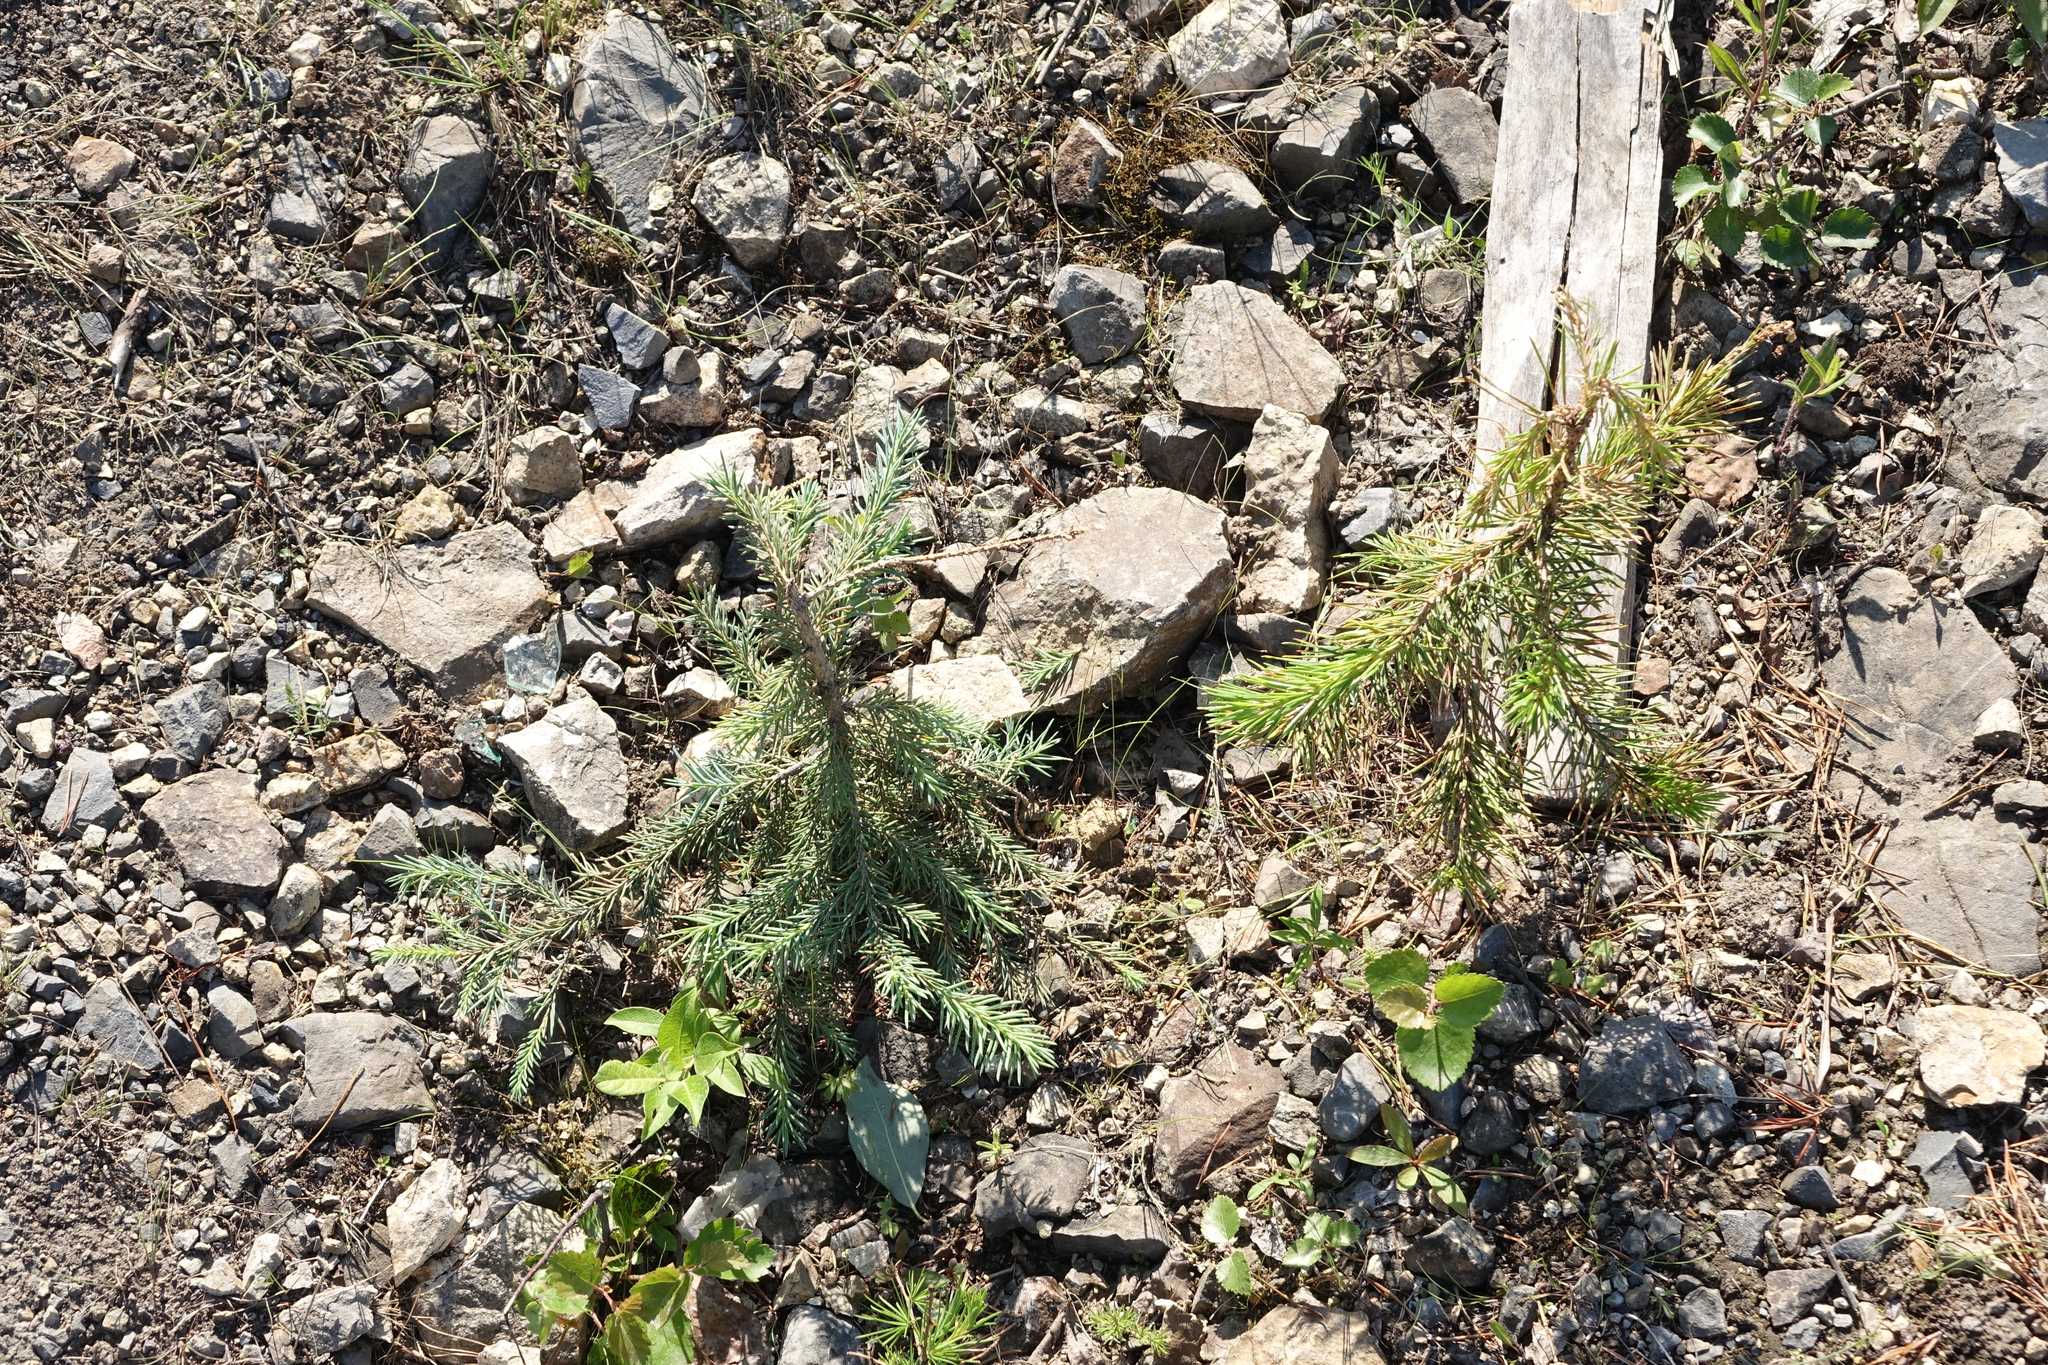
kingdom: Plantae
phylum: Tracheophyta
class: Pinopsida
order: Pinales
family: Pinaceae
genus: Picea
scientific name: Picea obovata
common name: Siberian spruce
